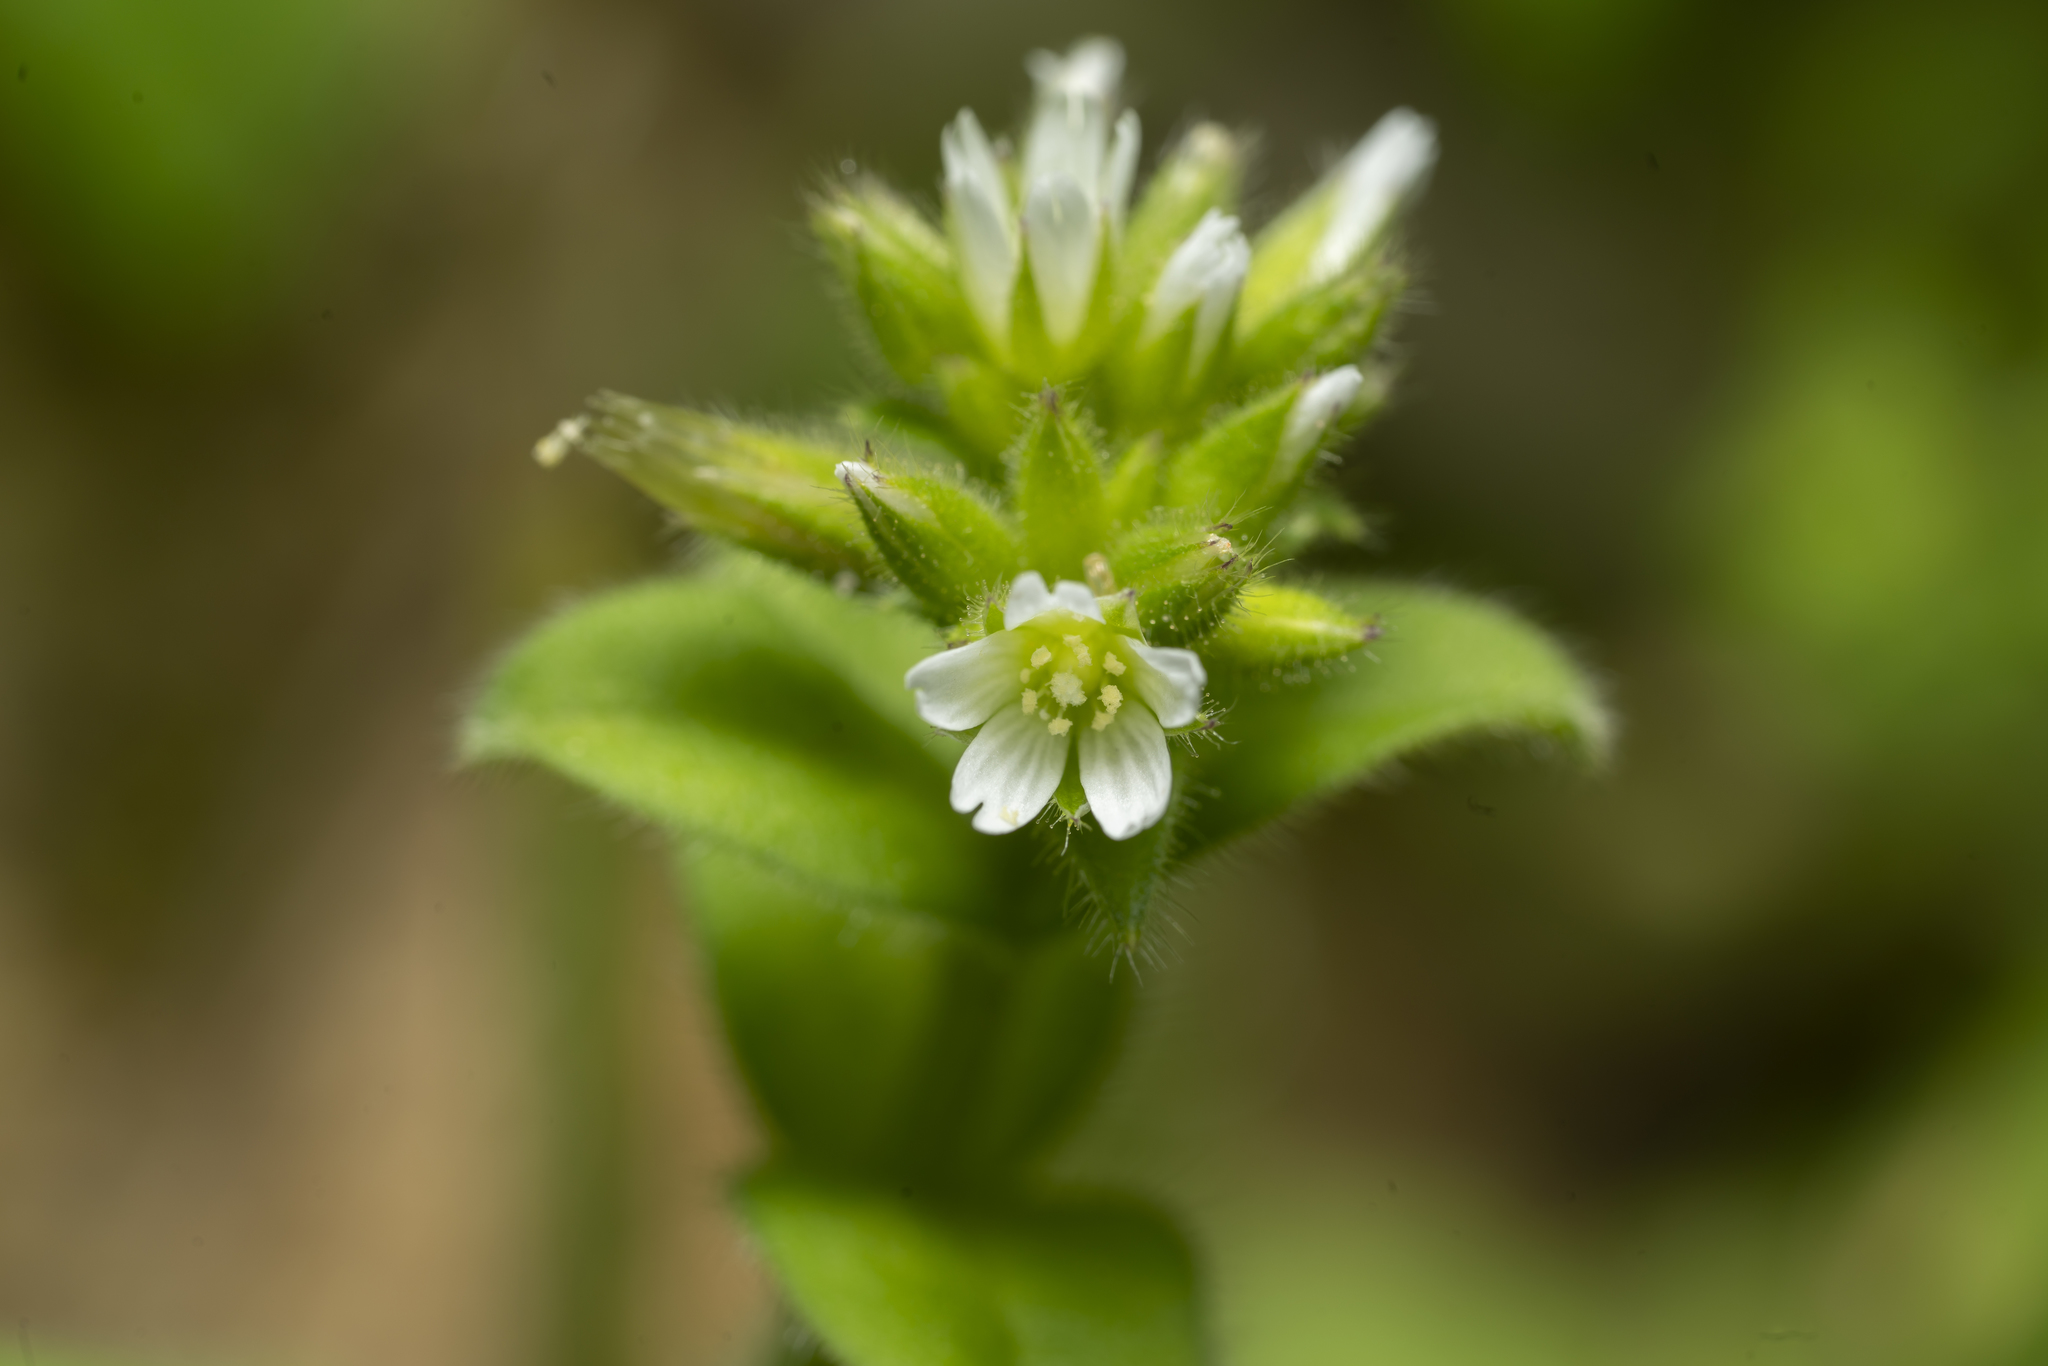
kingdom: Plantae
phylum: Tracheophyta
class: Magnoliopsida
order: Caryophyllales
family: Caryophyllaceae
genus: Cerastium
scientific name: Cerastium glomeratum
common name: Sticky chickweed
